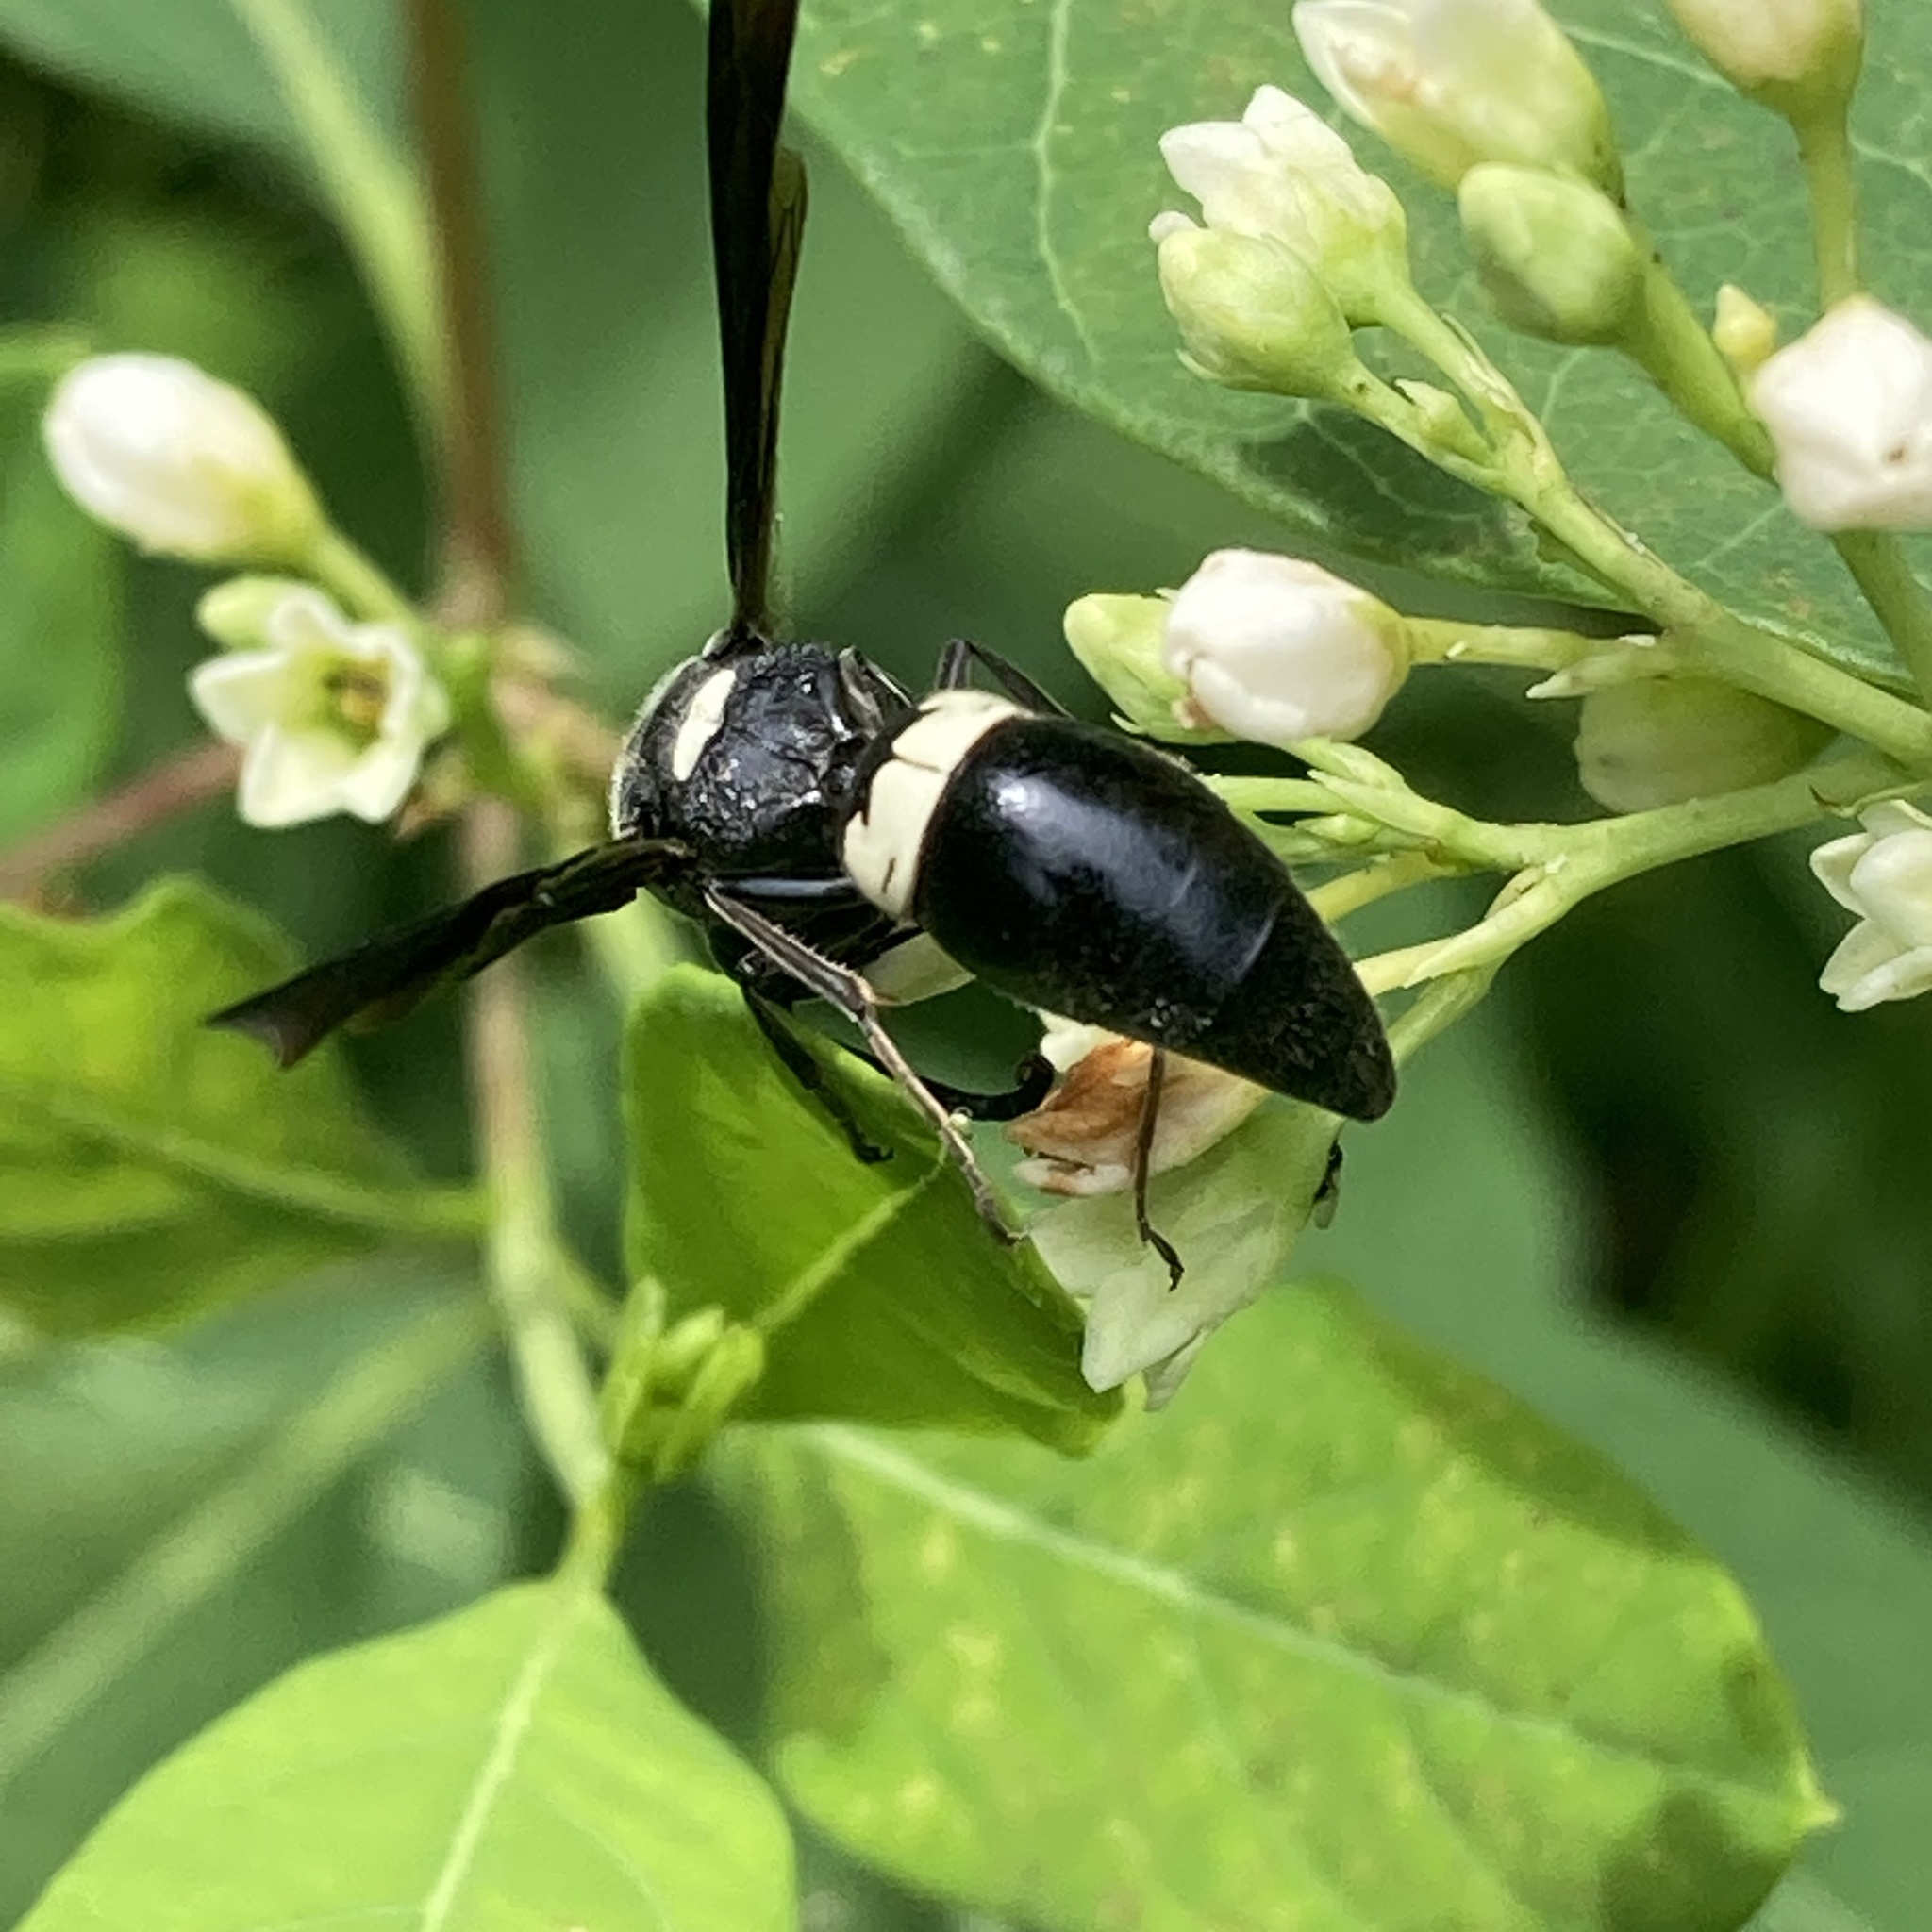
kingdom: Animalia
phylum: Arthropoda
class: Insecta
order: Hymenoptera
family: Eumenidae
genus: Monobia
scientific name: Monobia quadridens
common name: Four-toothed mason wasp
